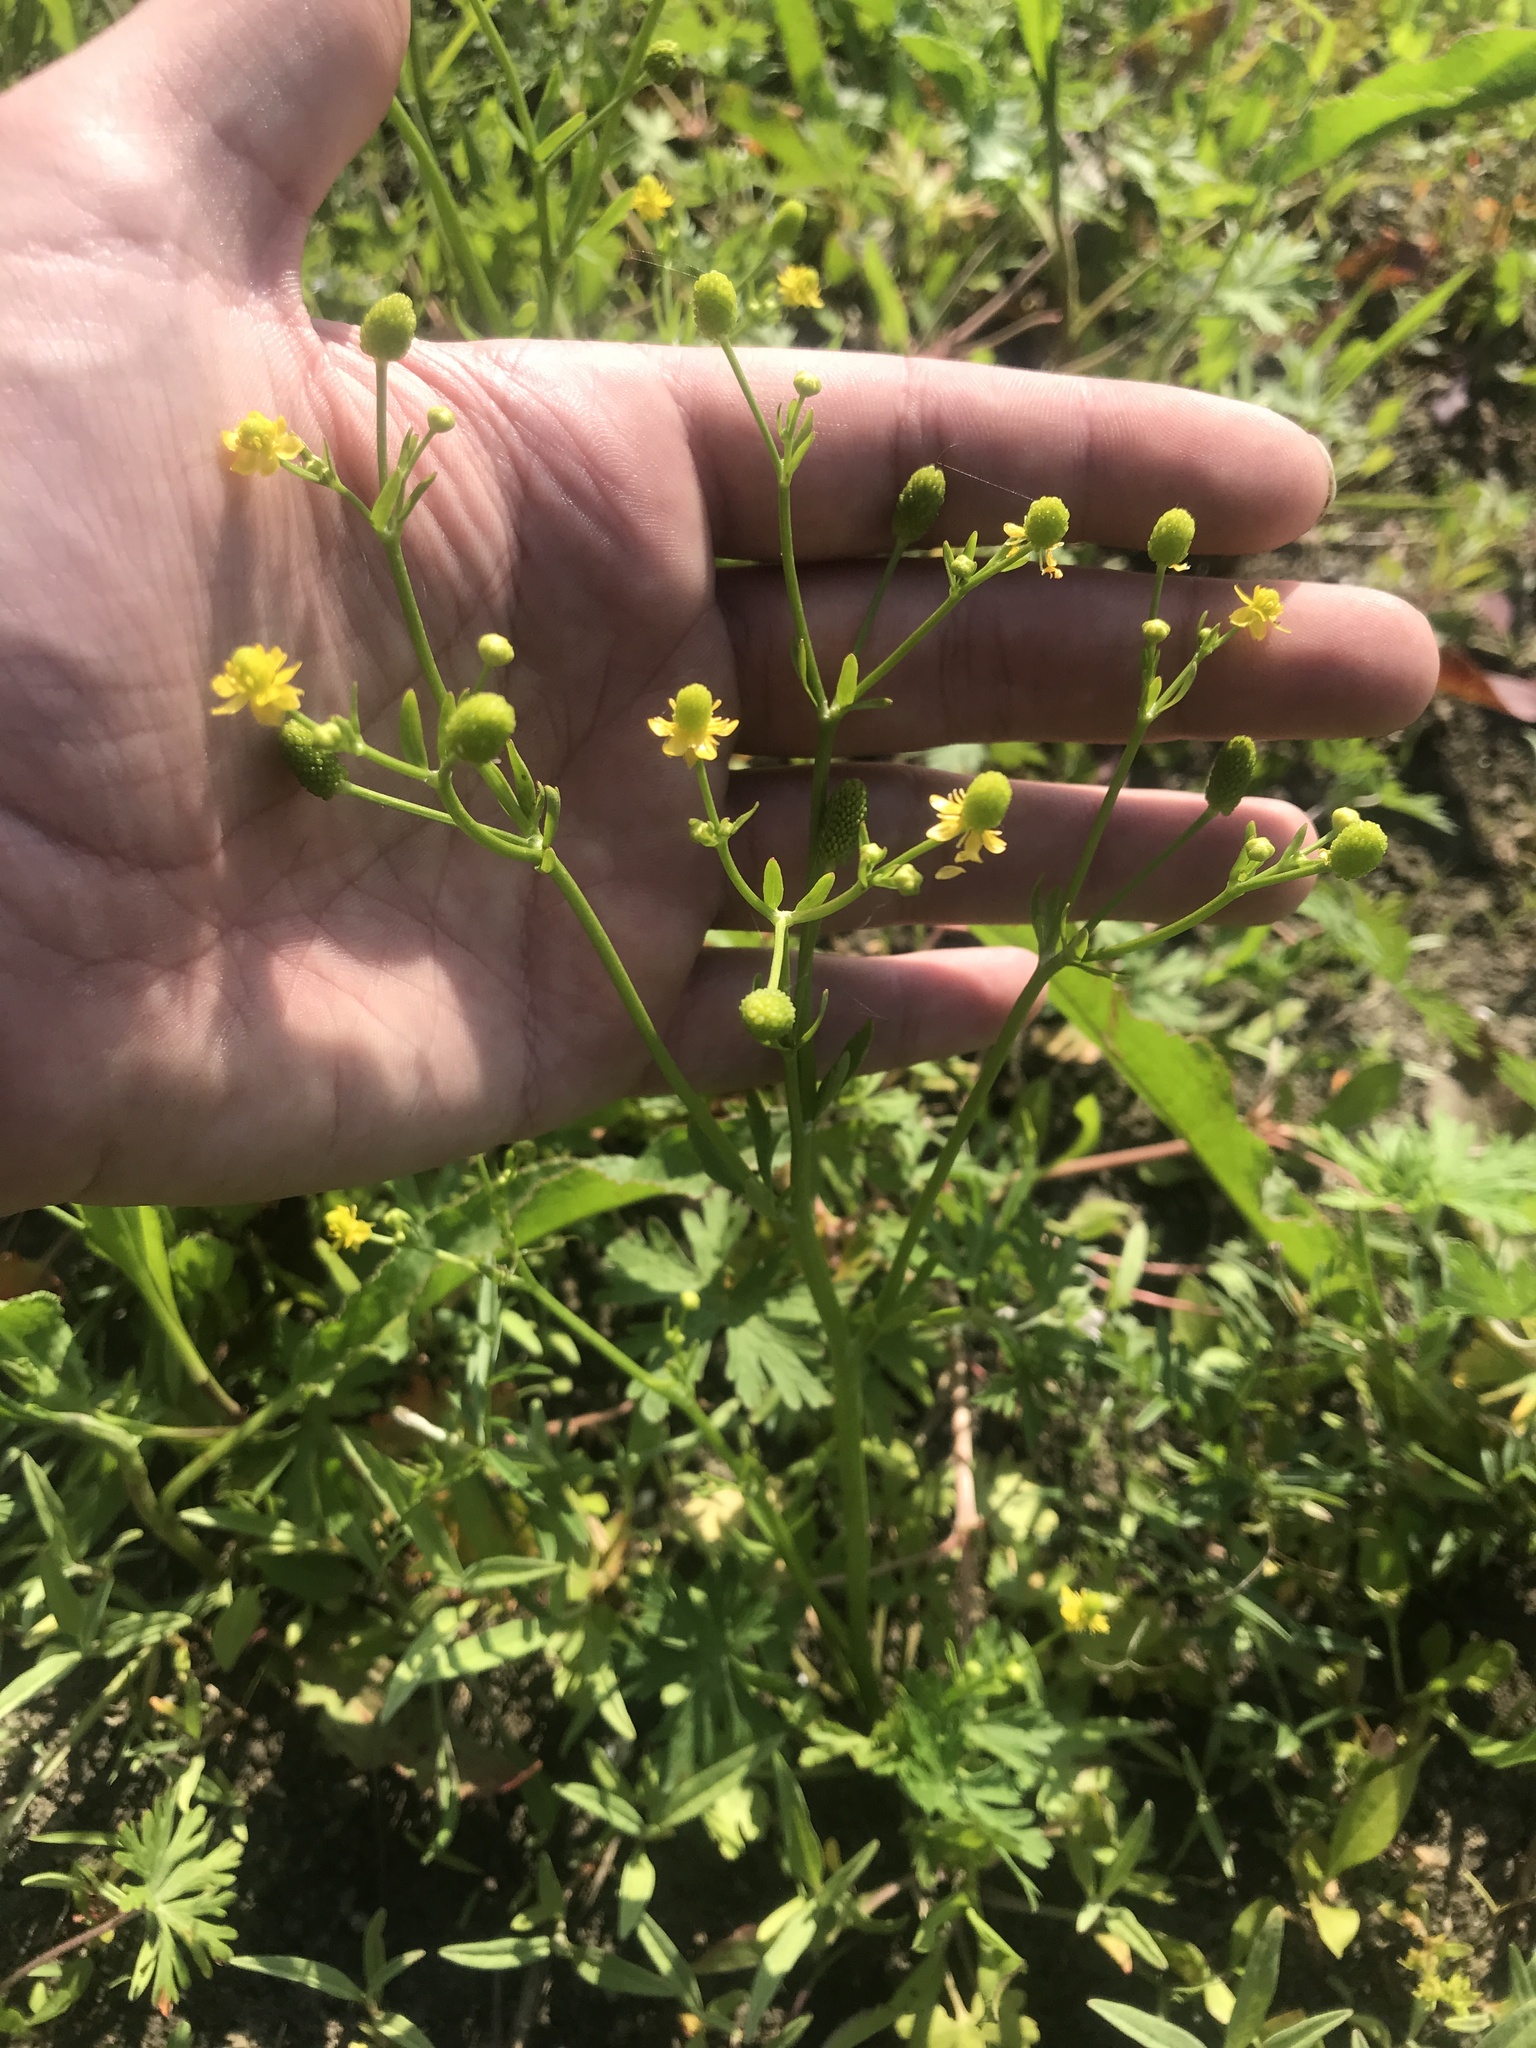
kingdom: Plantae
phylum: Tracheophyta
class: Magnoliopsida
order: Ranunculales
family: Ranunculaceae
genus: Ranunculus
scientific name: Ranunculus sceleratus
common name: Celery-leaved buttercup
